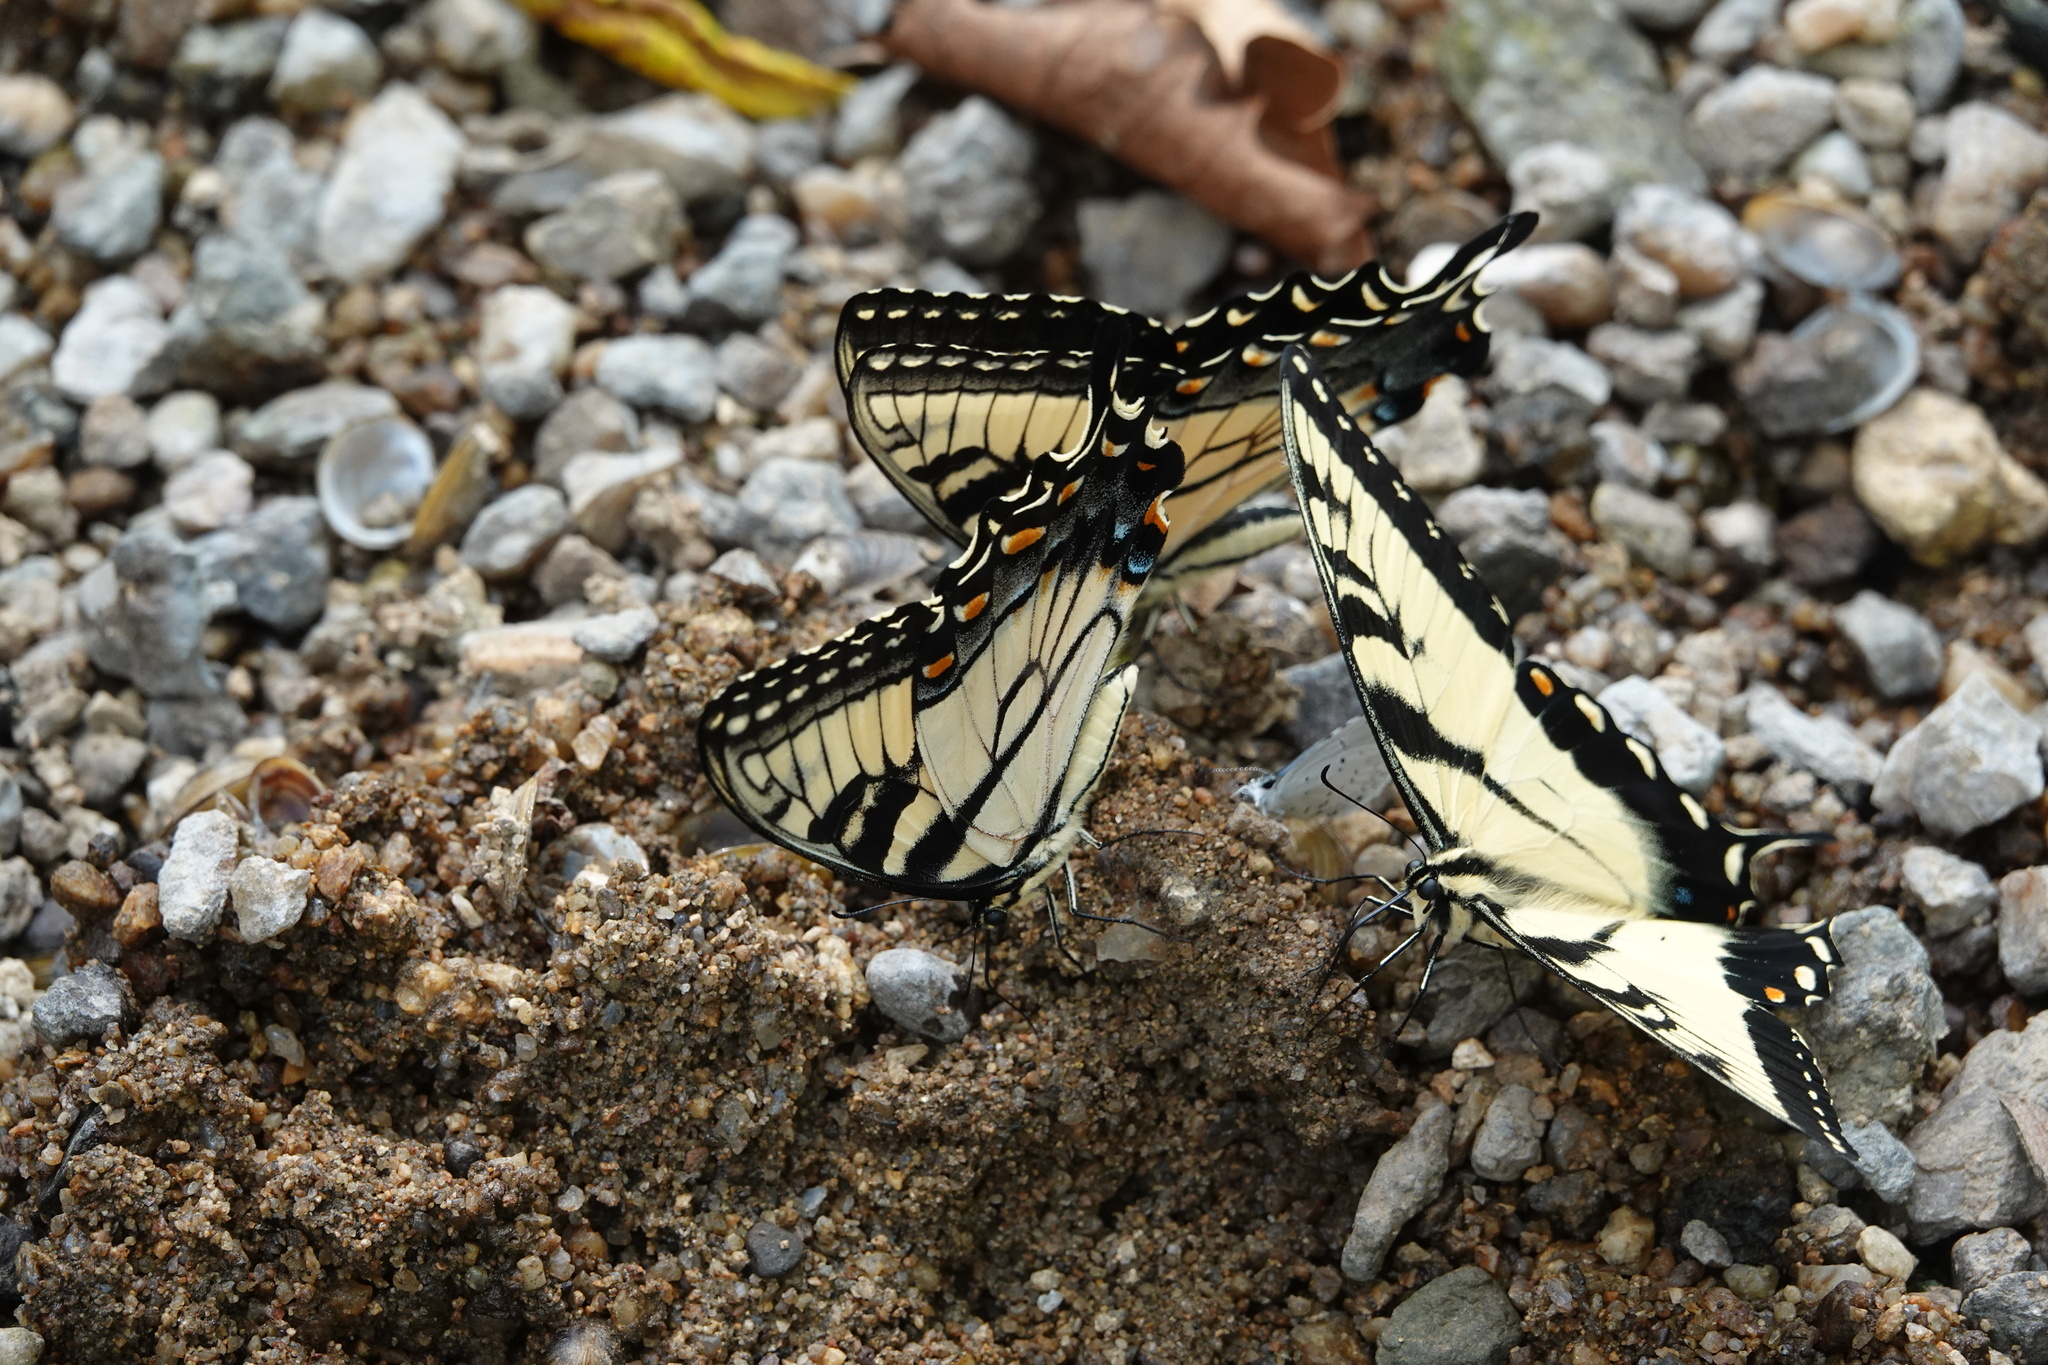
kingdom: Animalia
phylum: Arthropoda
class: Insecta
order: Lepidoptera
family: Papilionidae
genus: Papilio
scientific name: Papilio glaucus
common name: Tiger swallowtail
